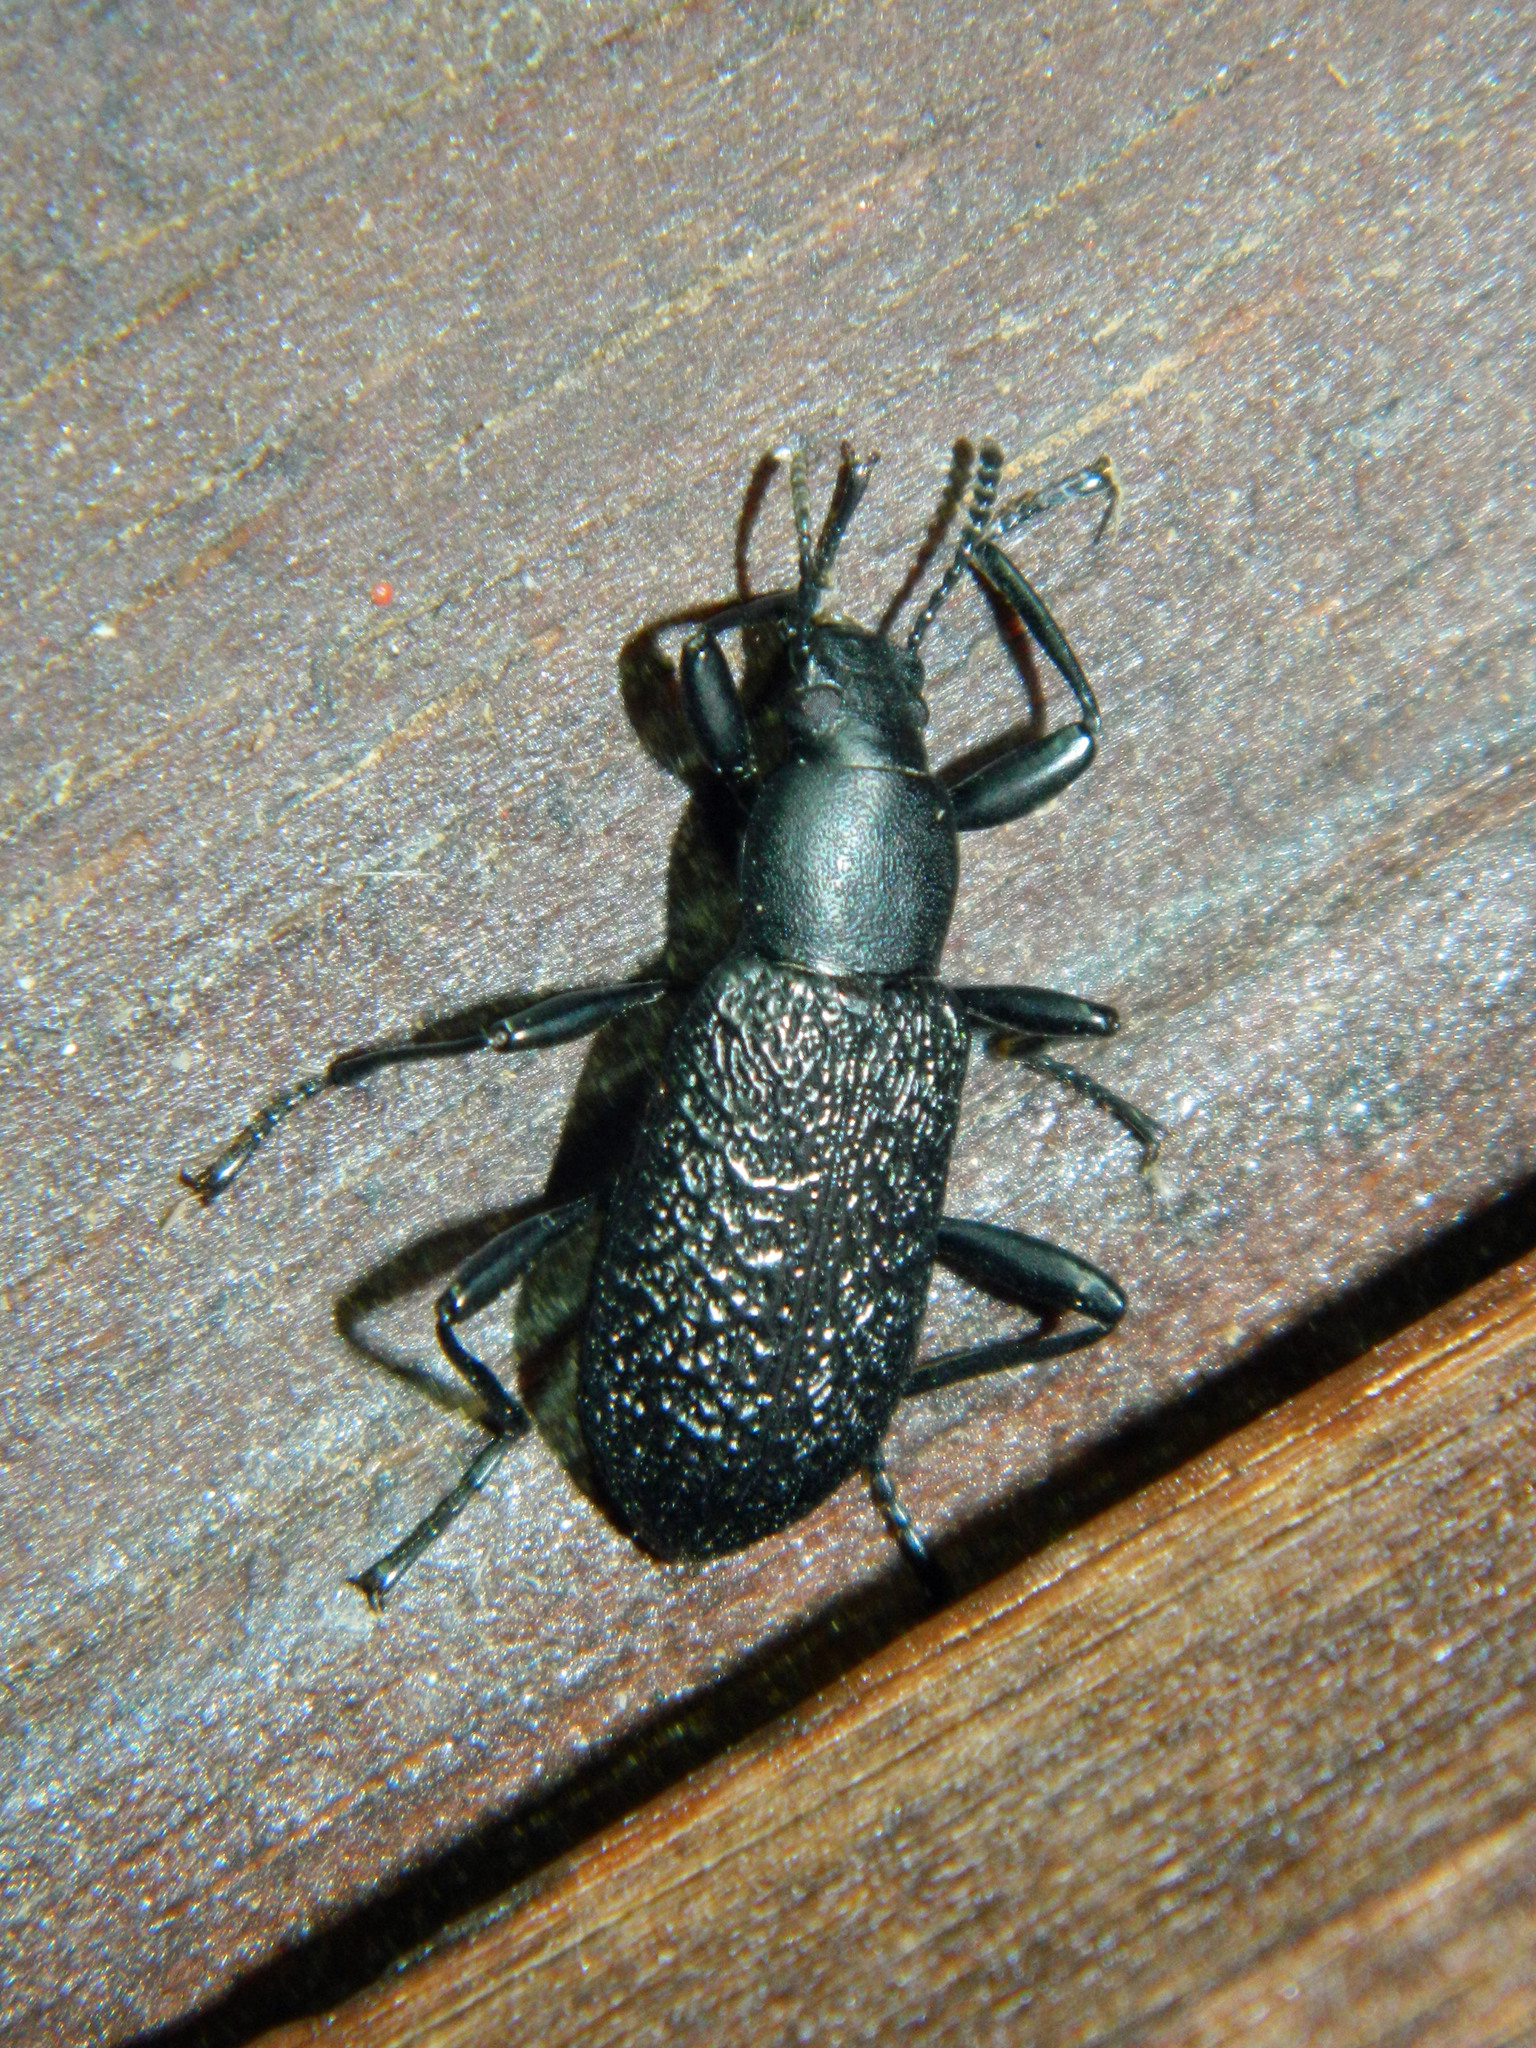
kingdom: Animalia
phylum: Arthropoda
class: Insecta
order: Coleoptera
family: Tenebrionidae
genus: Upis
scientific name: Upis ceramboides
